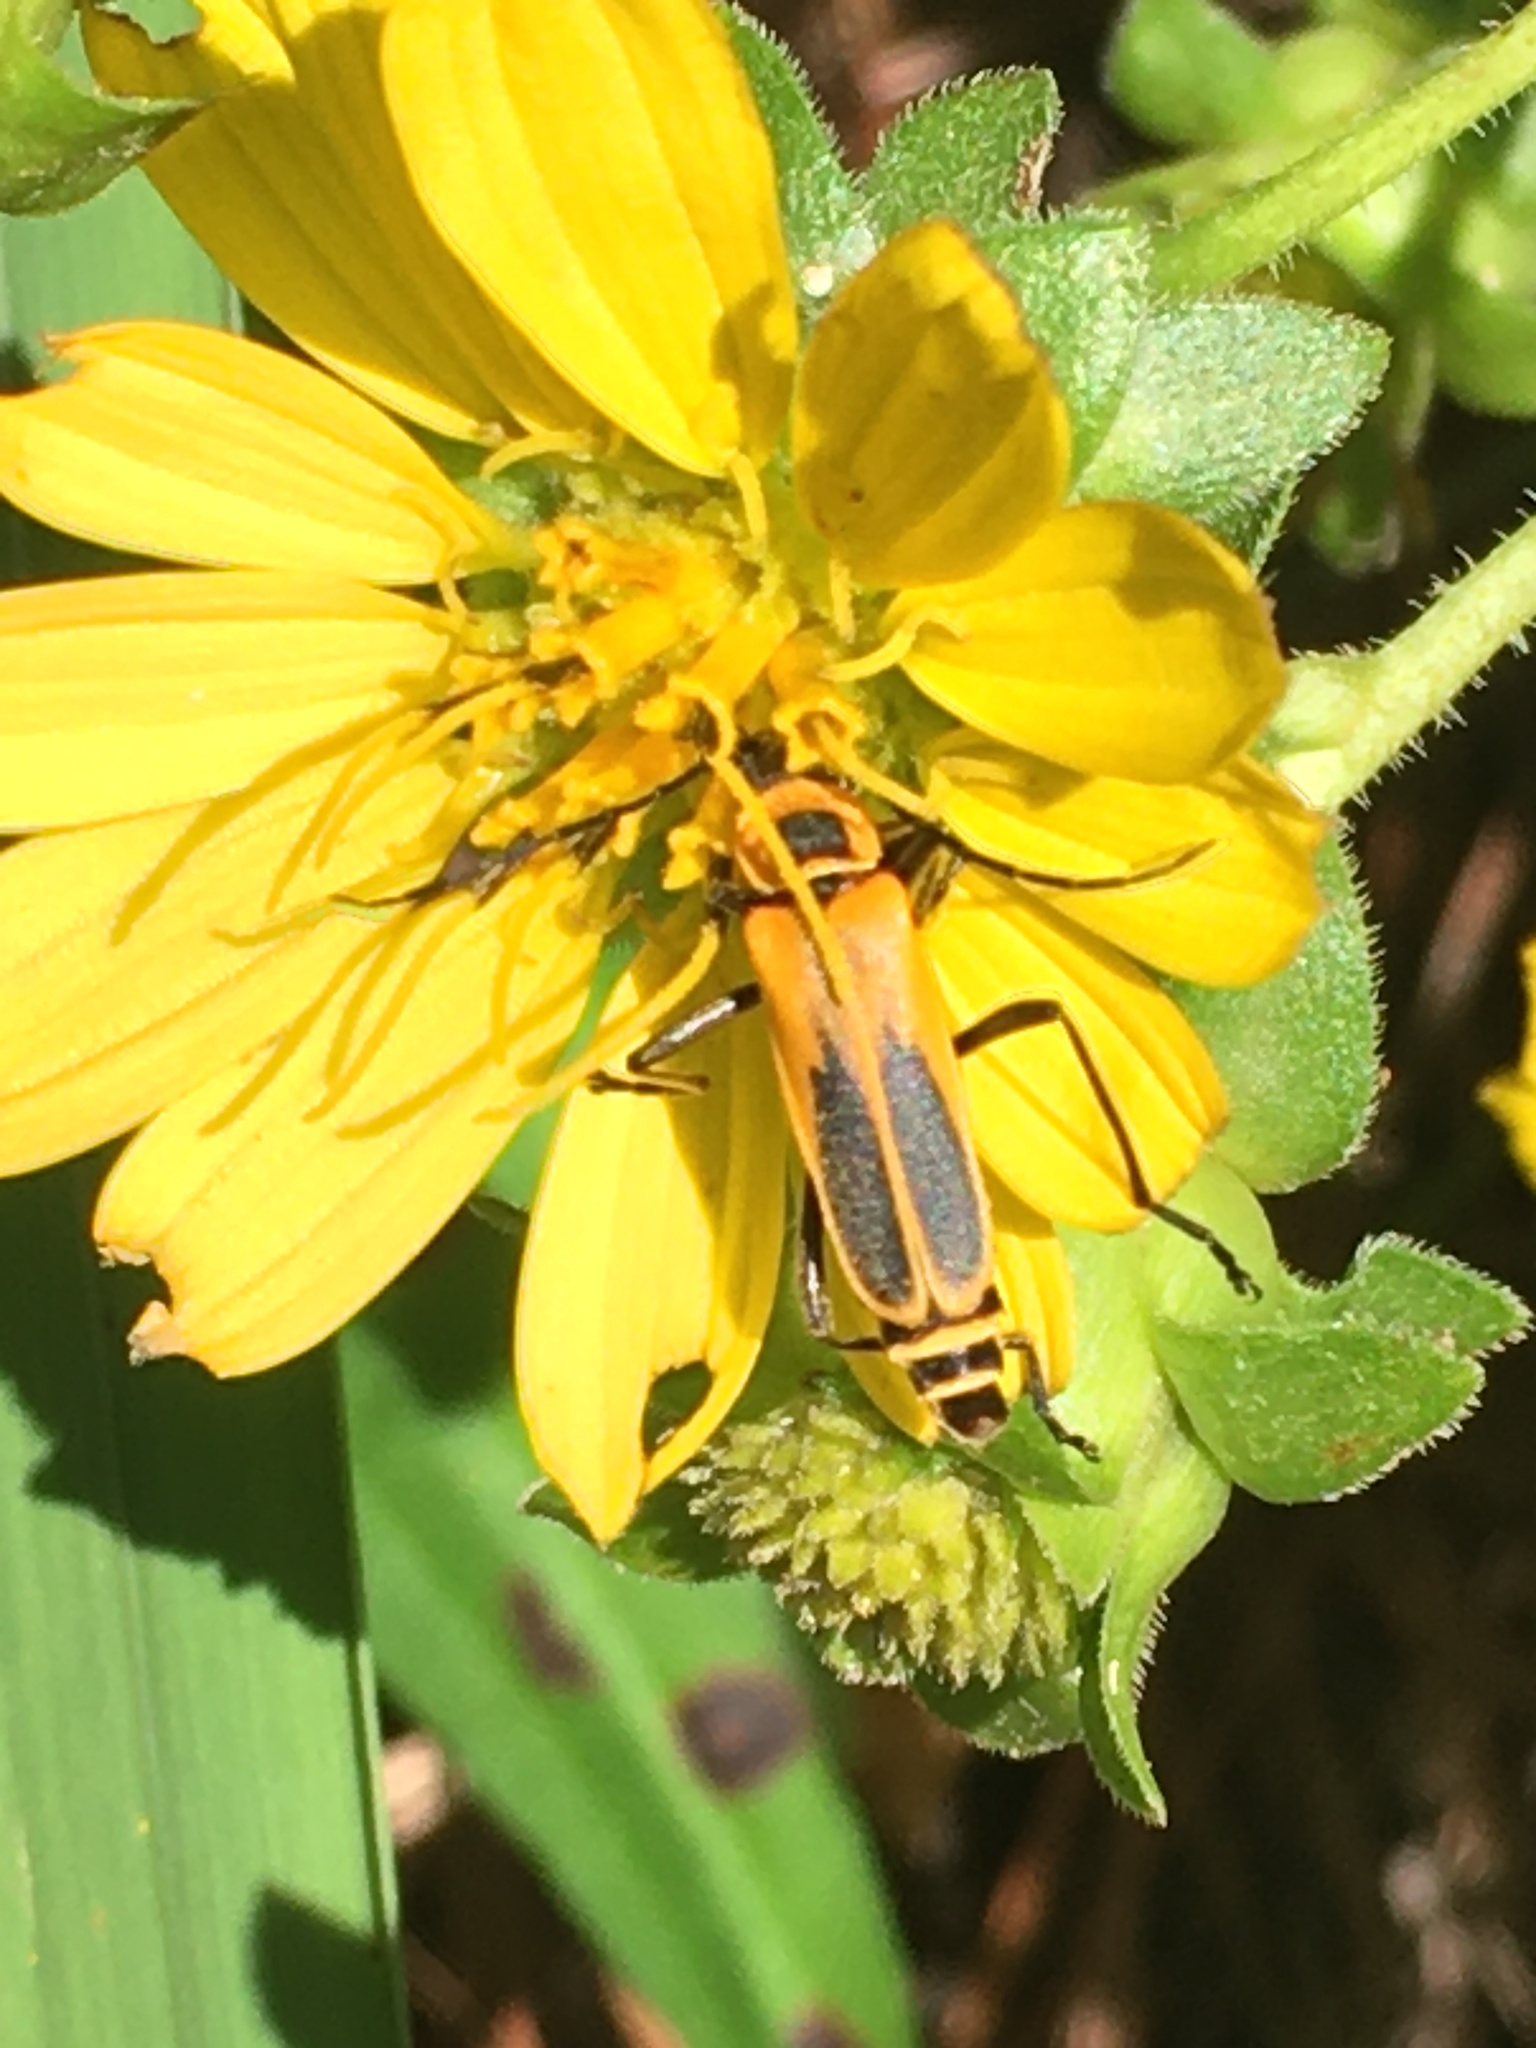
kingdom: Animalia
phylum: Arthropoda
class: Insecta
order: Coleoptera
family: Cantharidae
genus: Chauliognathus
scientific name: Chauliognathus pensylvanicus
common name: Goldenrod soldier beetle
